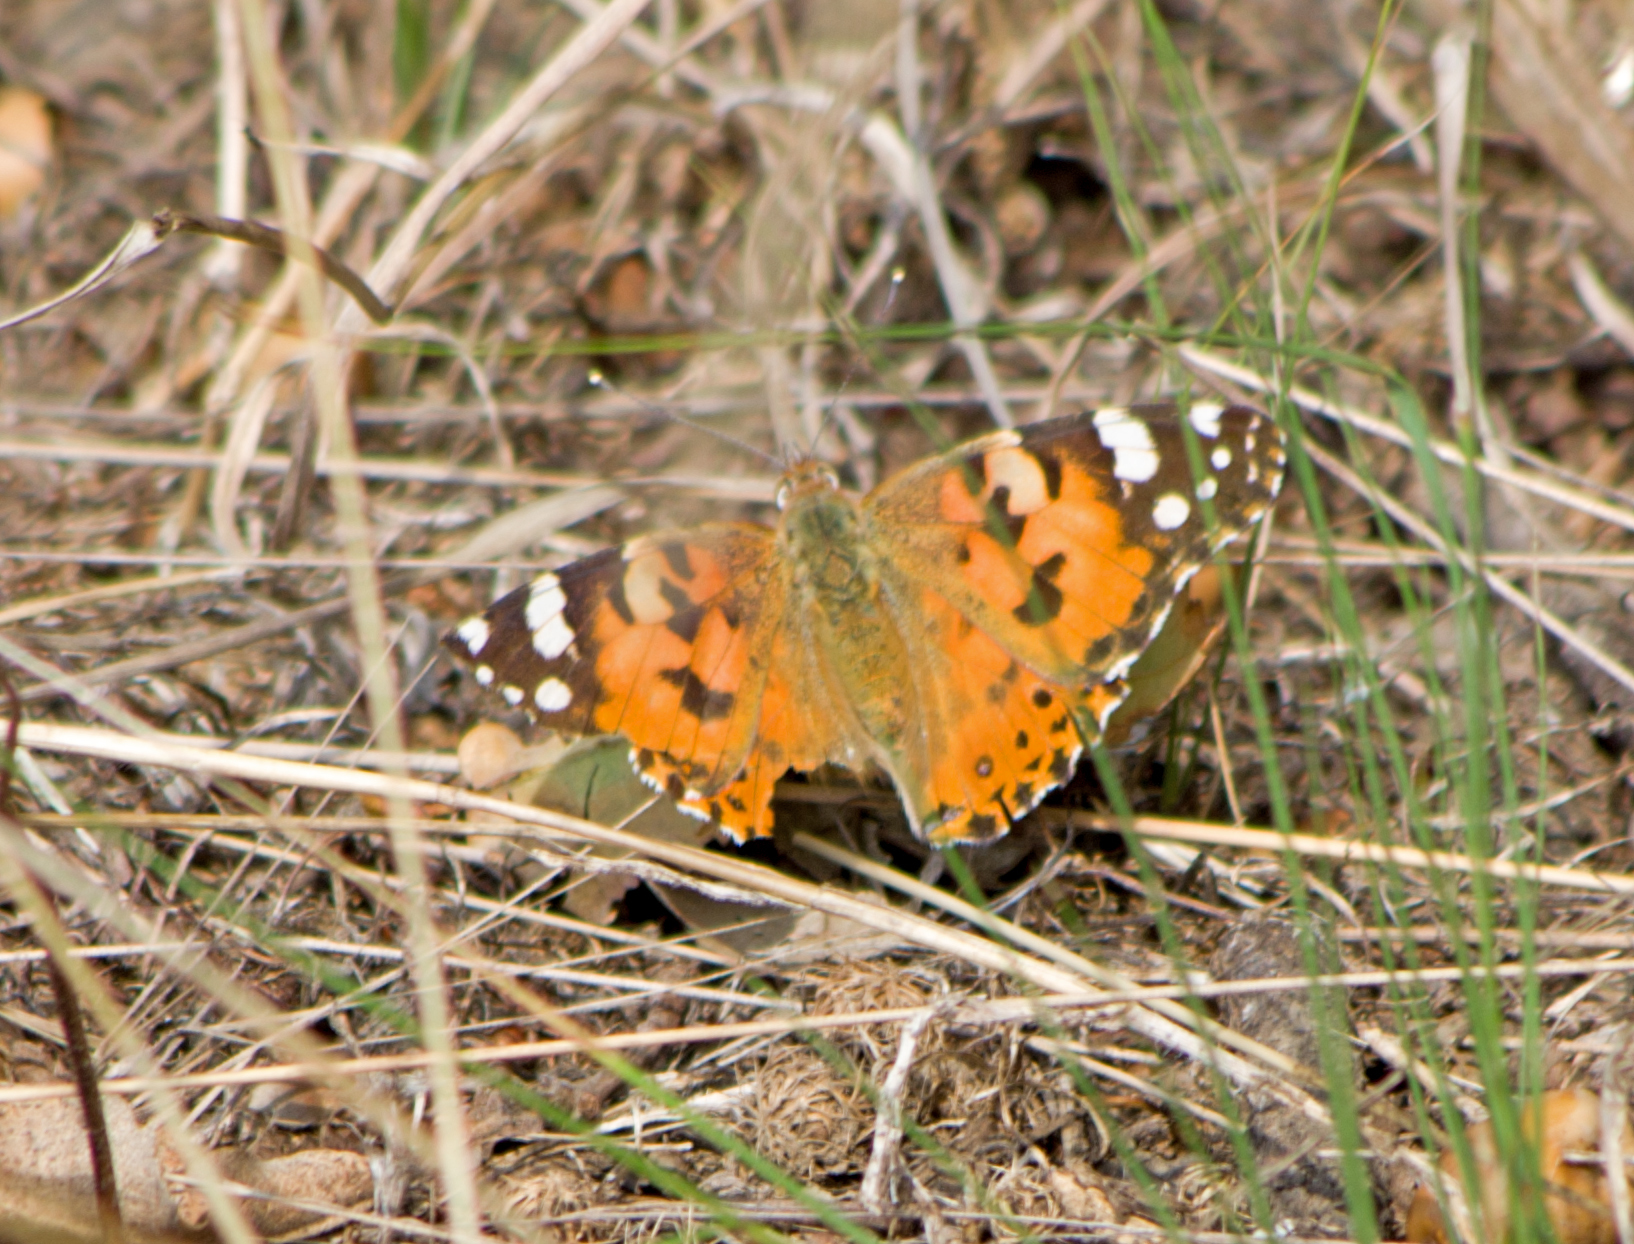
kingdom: Animalia
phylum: Arthropoda
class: Insecta
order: Lepidoptera
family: Nymphalidae
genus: Vanessa
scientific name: Vanessa cardui
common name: Painted lady
